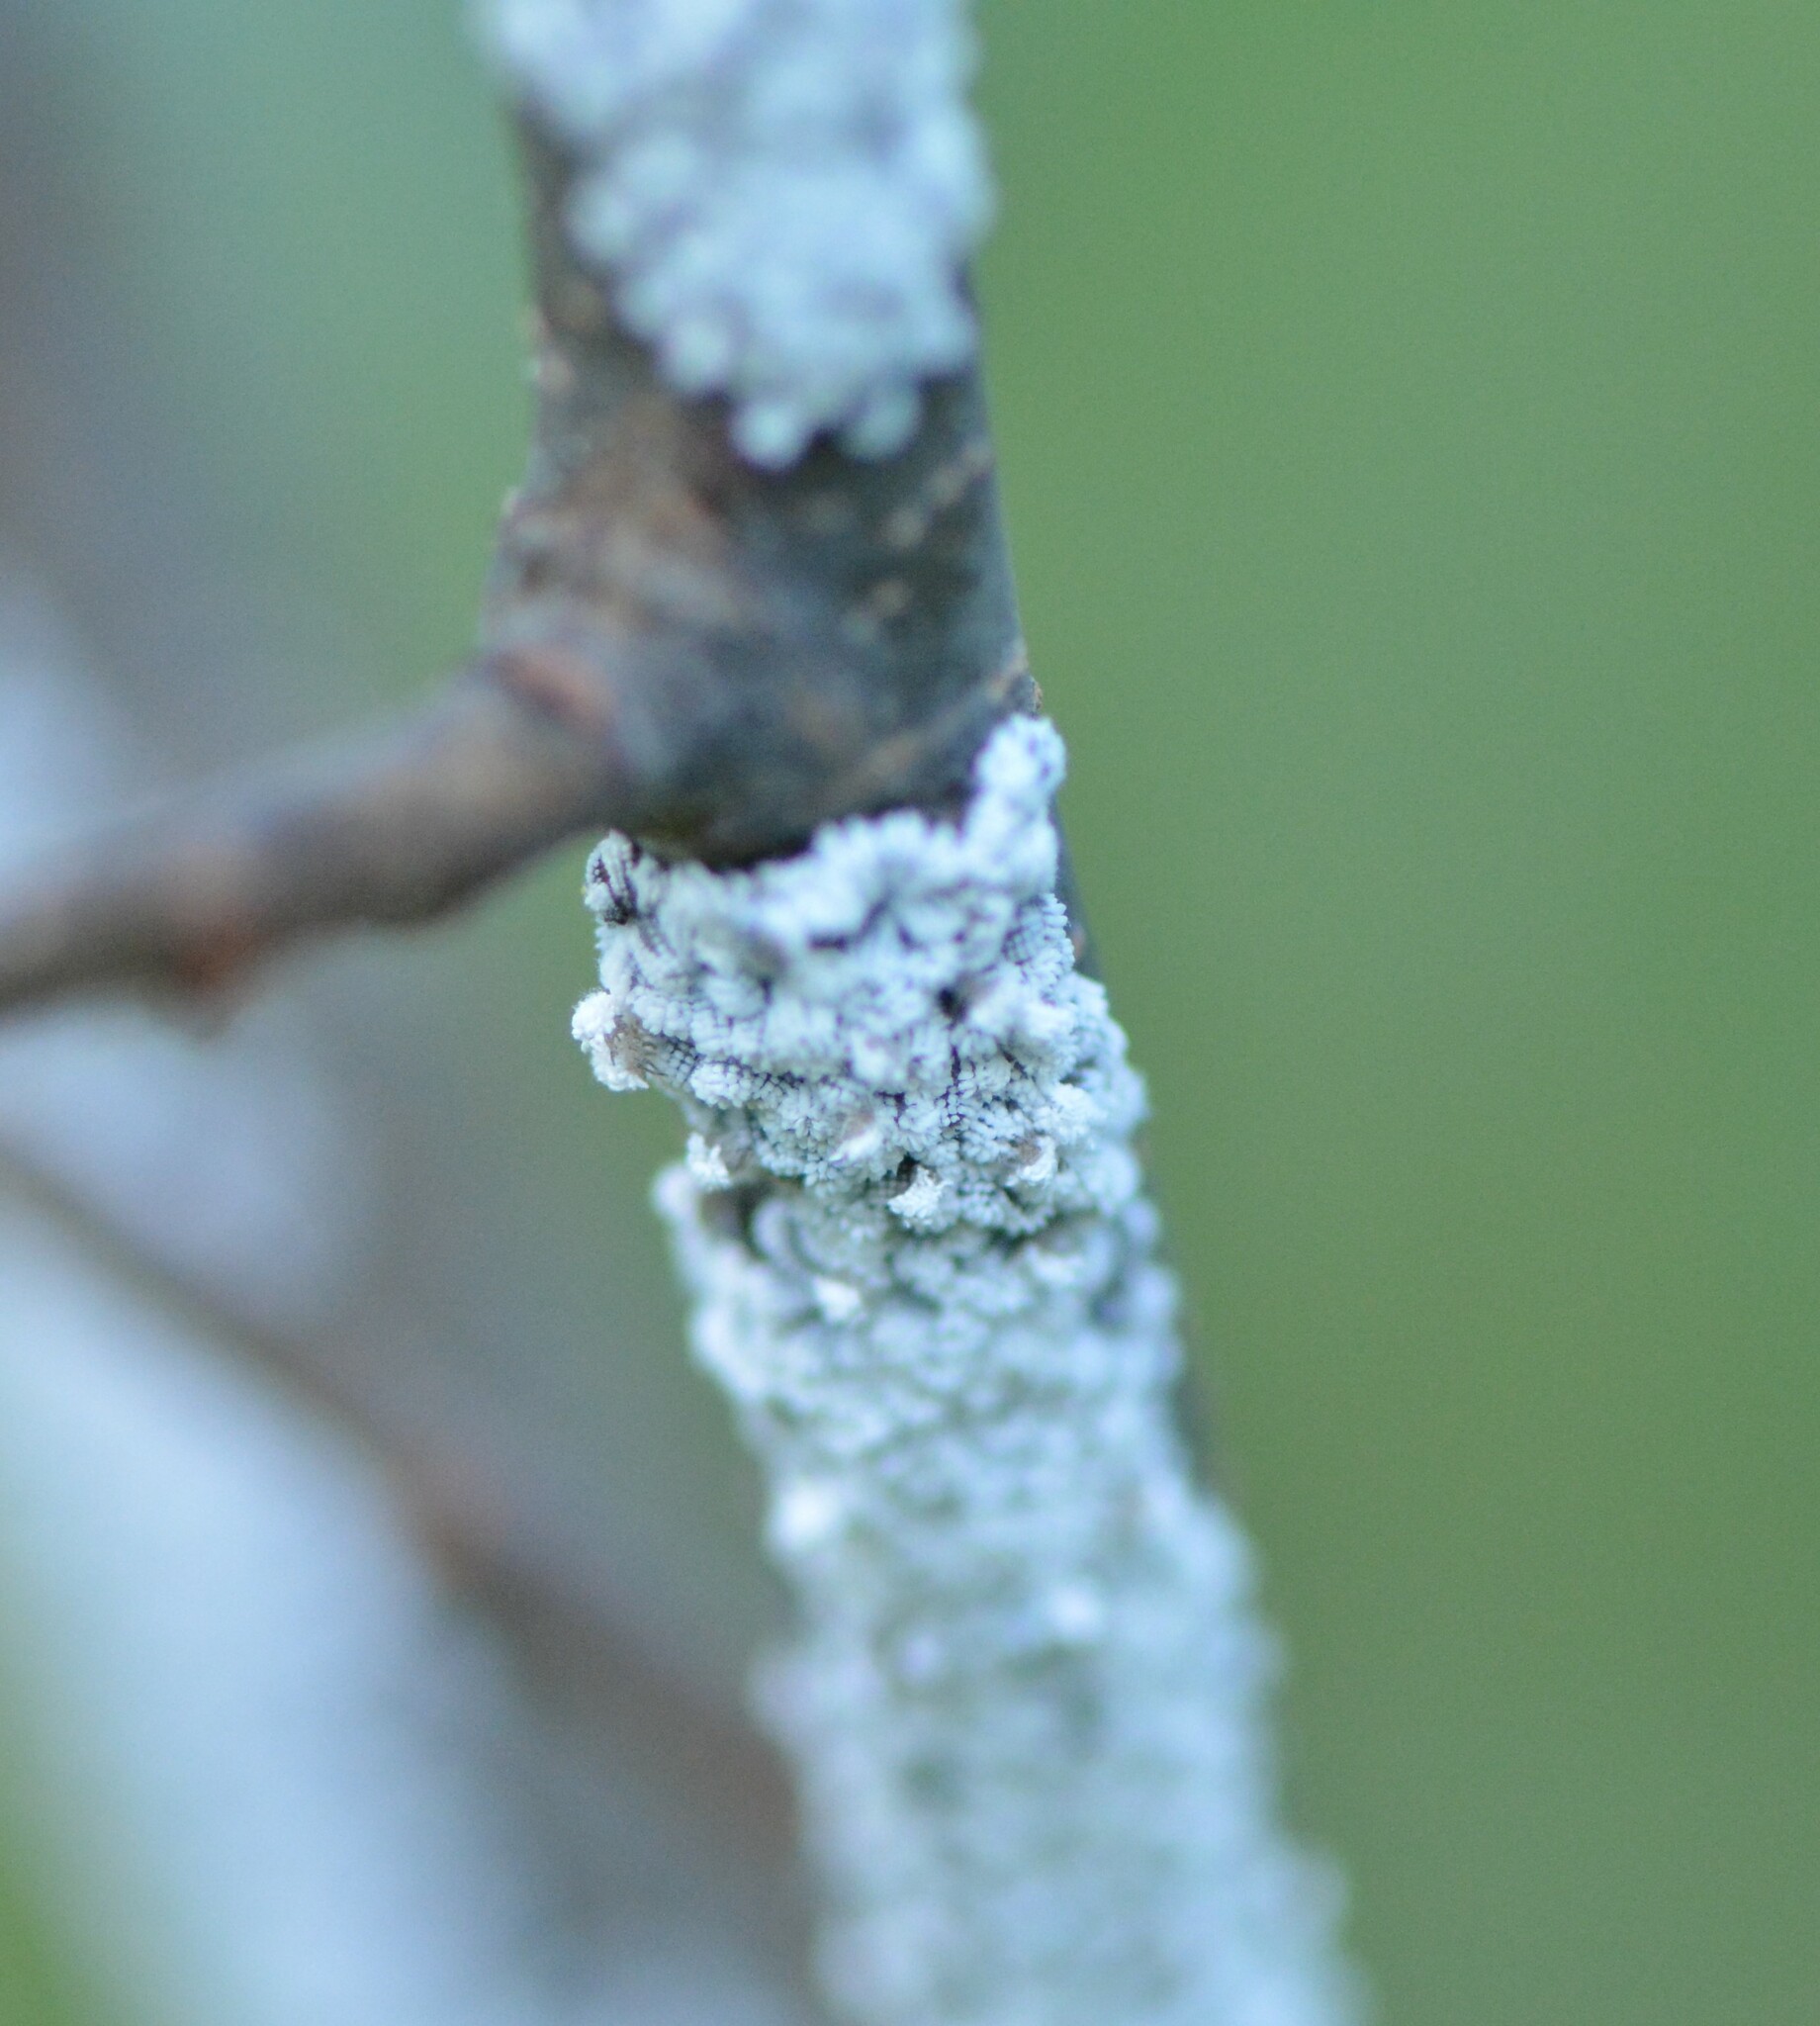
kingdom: Animalia
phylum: Arthropoda
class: Insecta
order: Hemiptera
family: Aphididae
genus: Prociphilus
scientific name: Prociphilus tessellatus
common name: Woolly alder aphid
